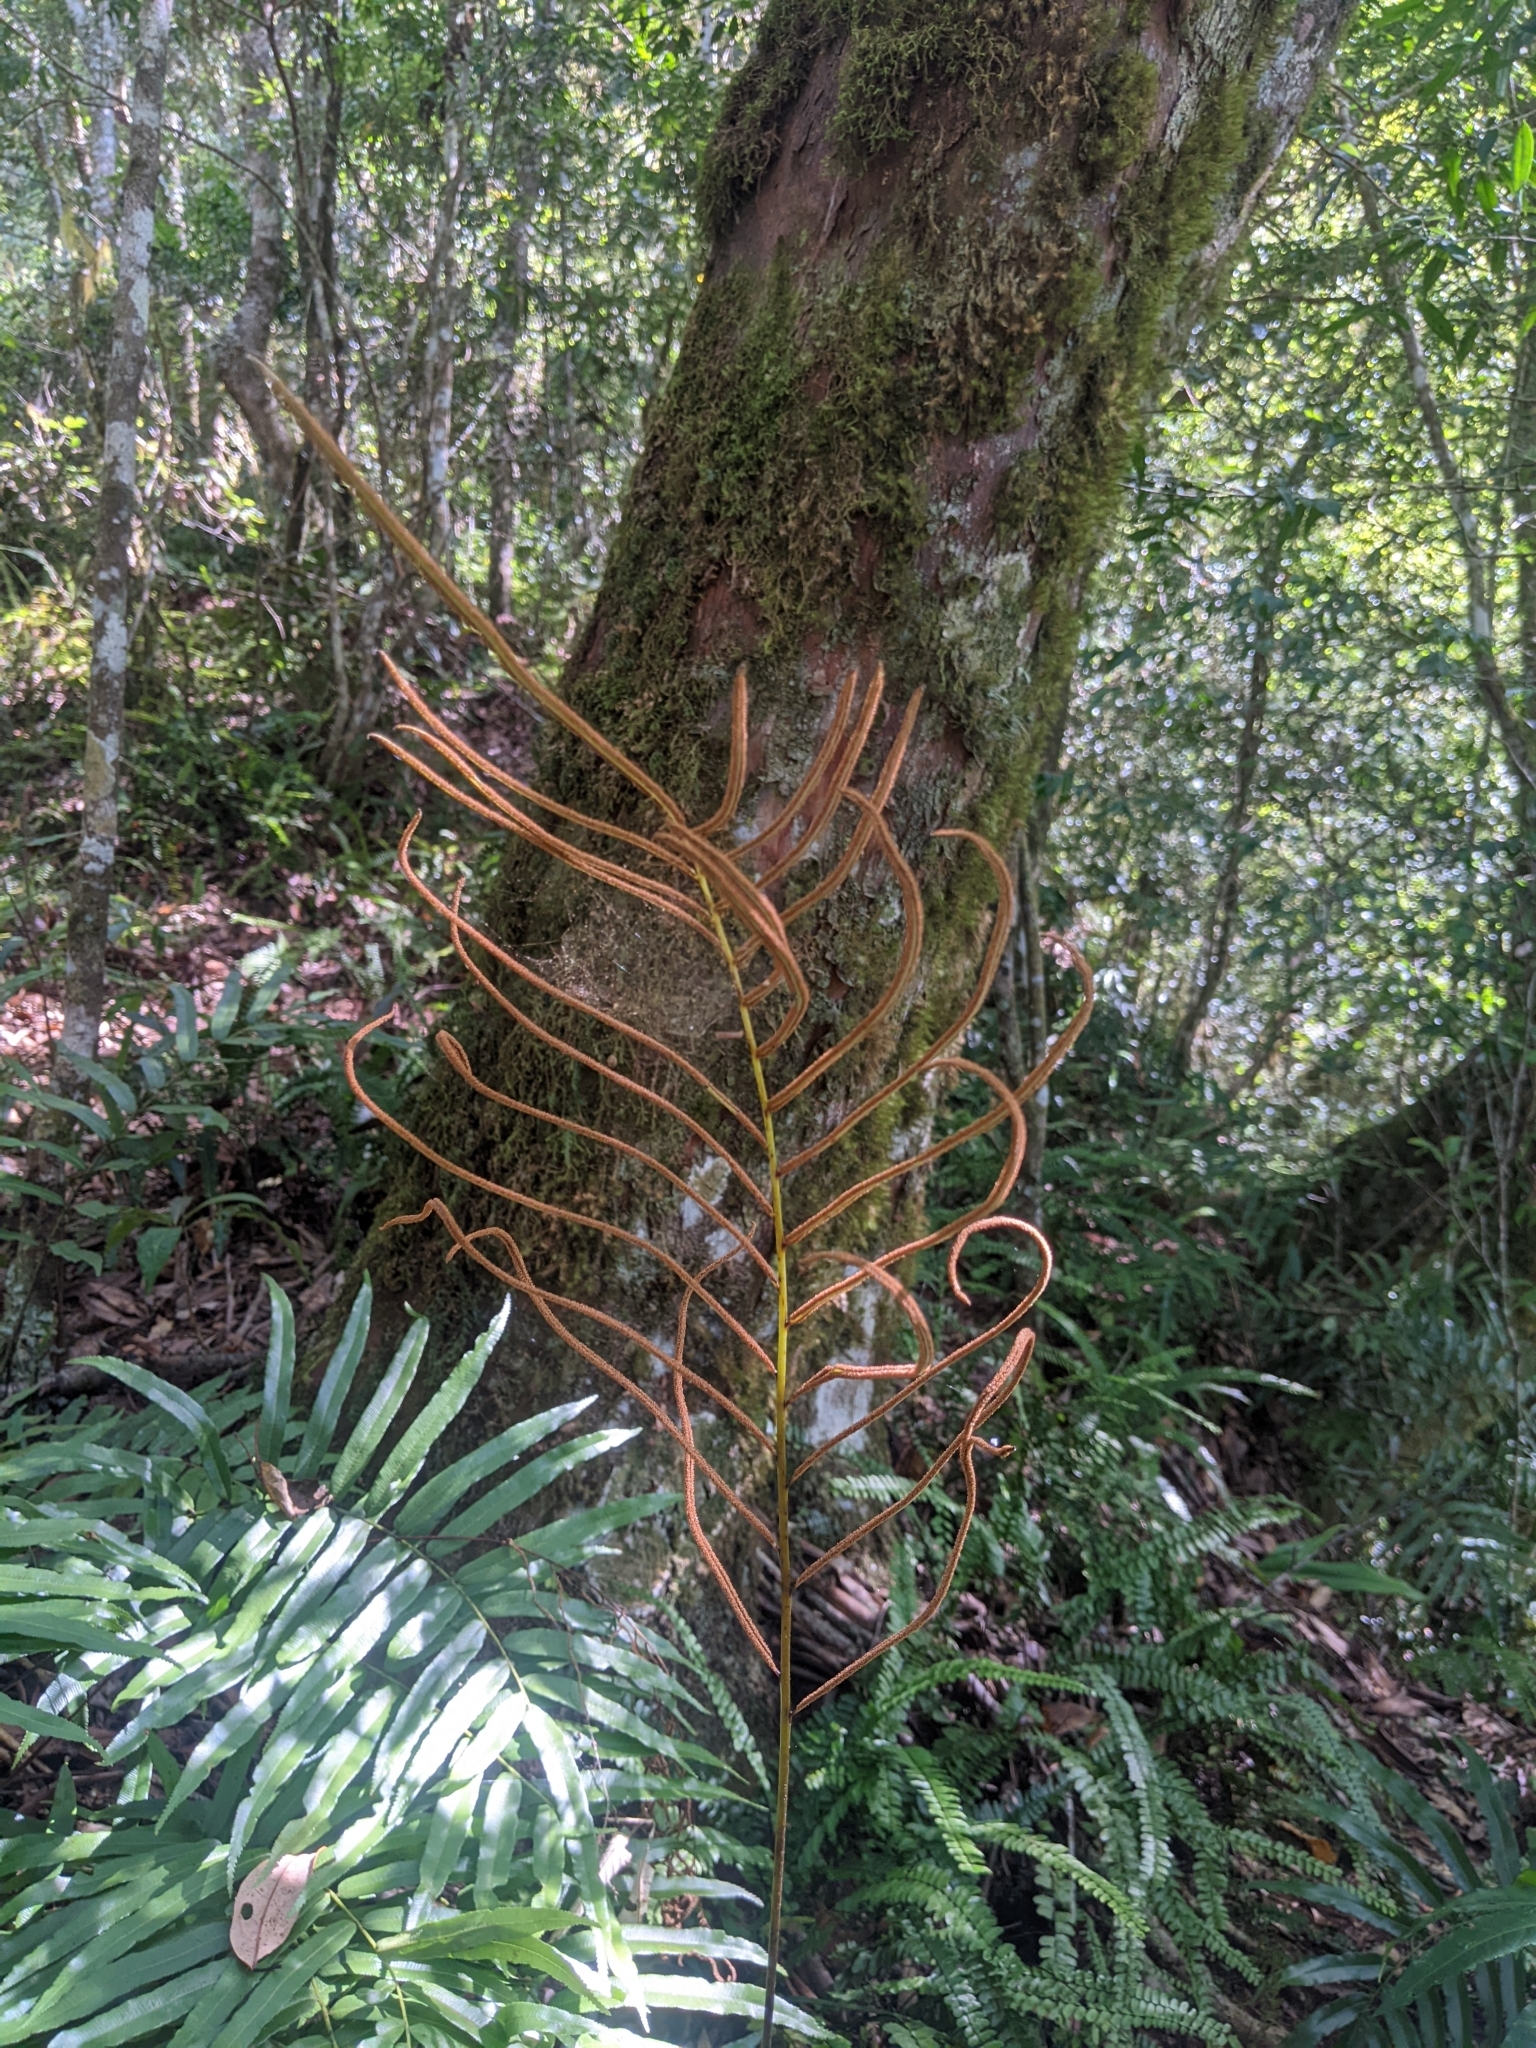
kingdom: Plantae
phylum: Tracheophyta
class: Polypodiopsida
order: Cyatheales
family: Plagiogyriaceae
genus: Plagiogyria
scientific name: Plagiogyria euphlebia
